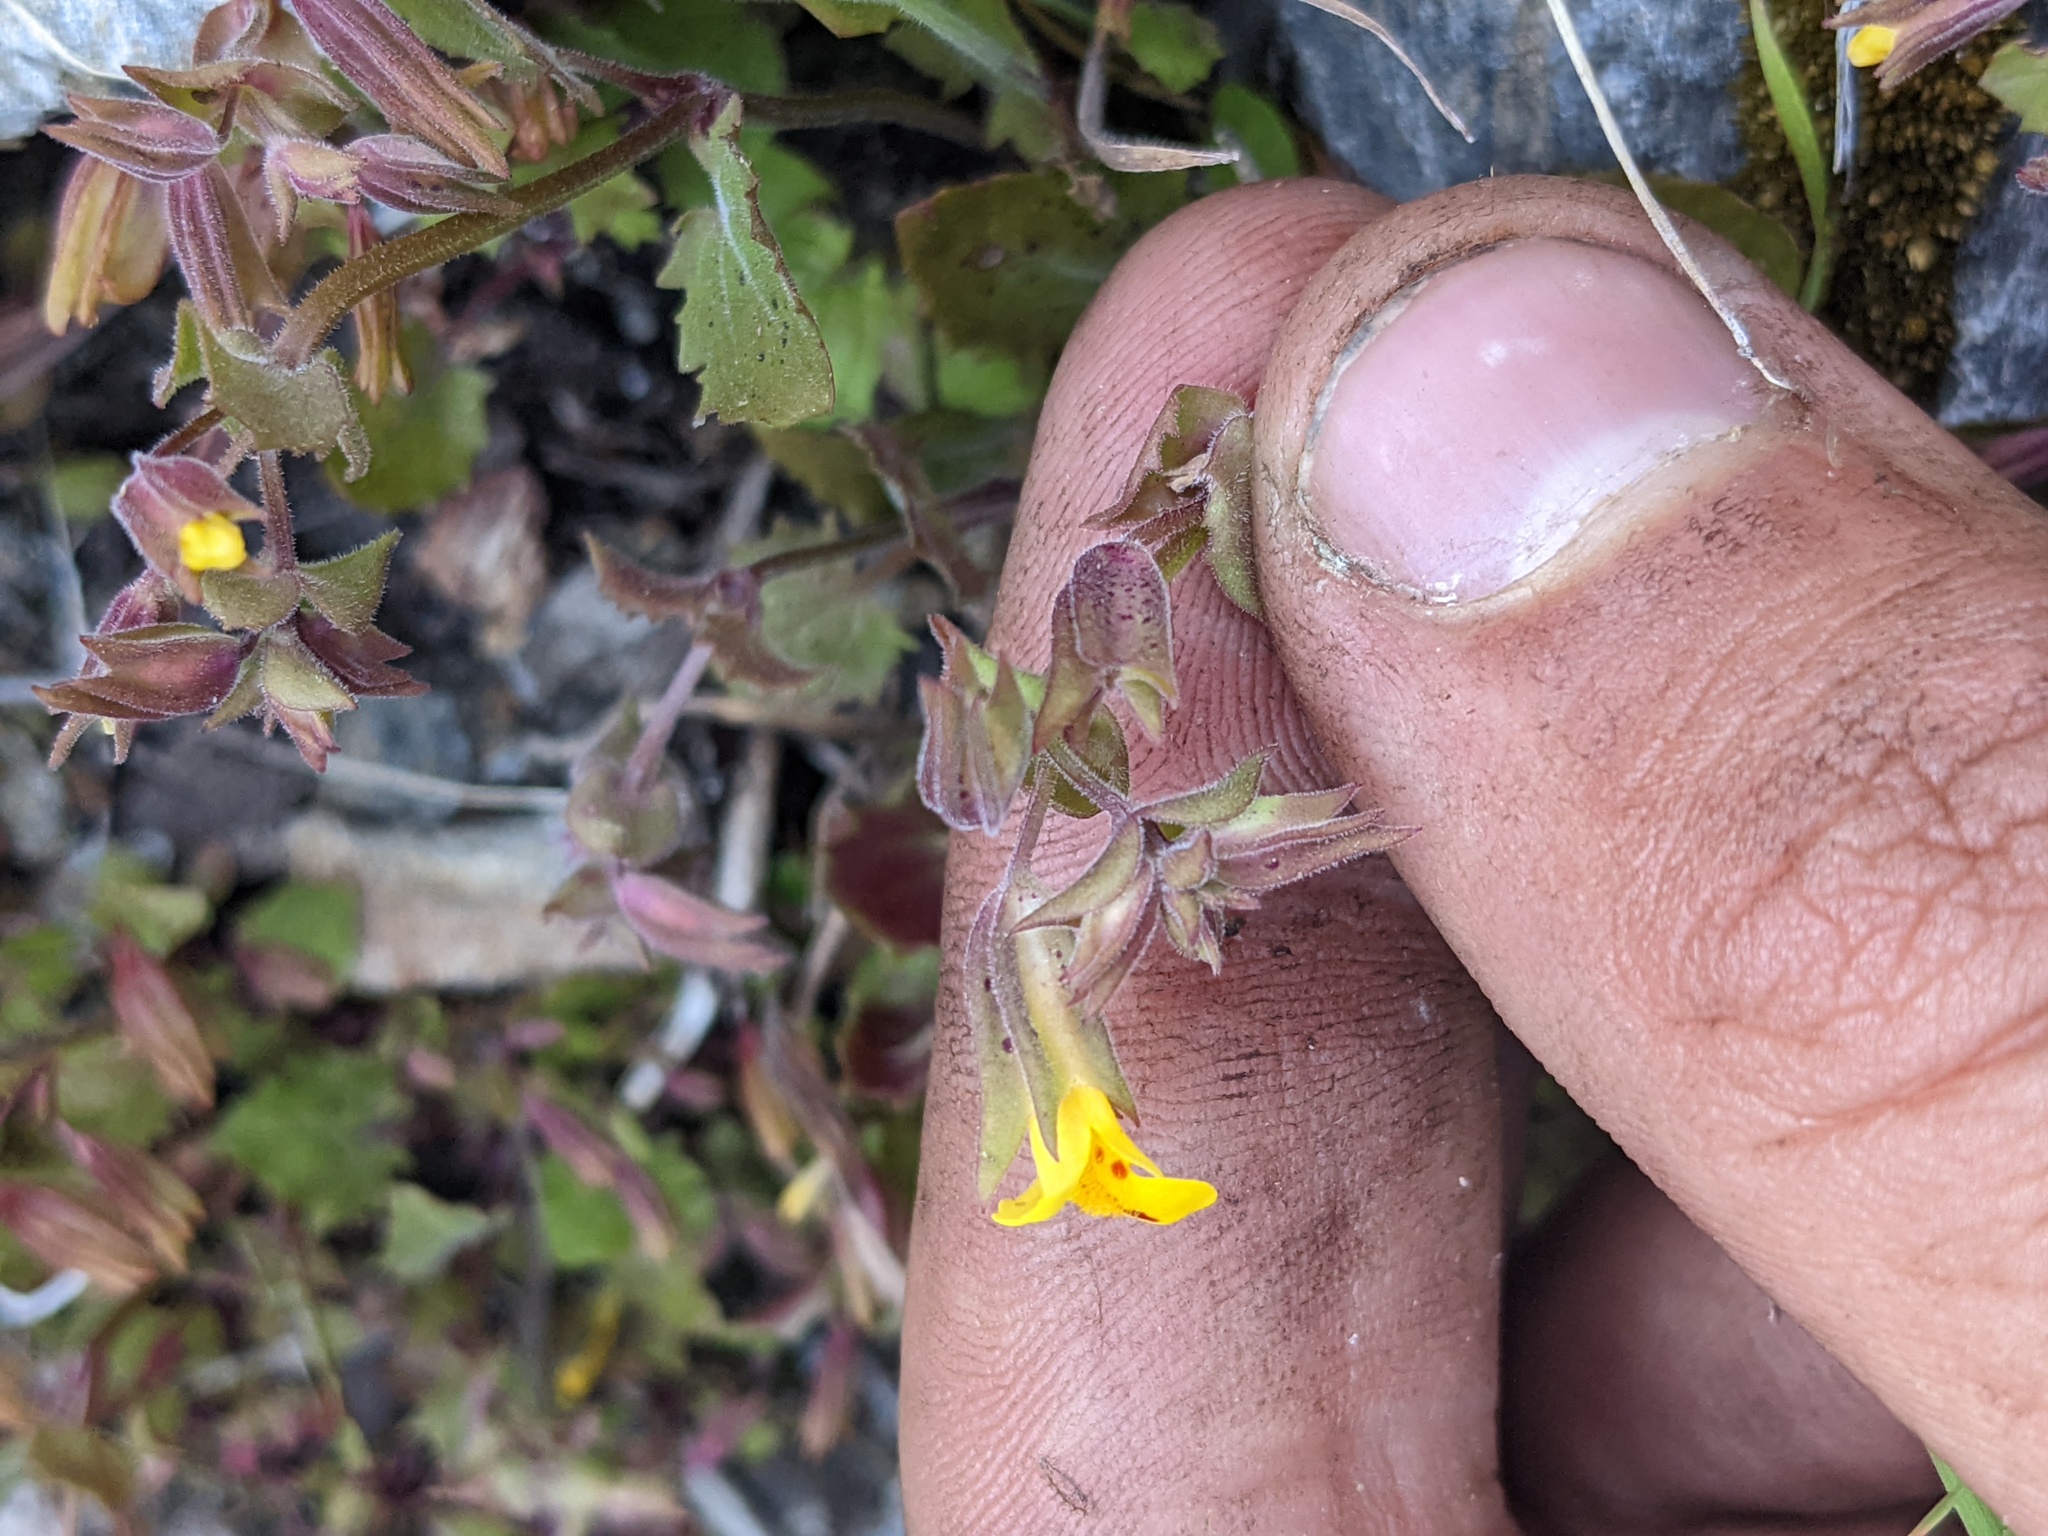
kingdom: Plantae
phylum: Tracheophyta
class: Magnoliopsida
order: Lamiales
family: Phrymaceae
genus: Erythranthe
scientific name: Erythranthe nasuta
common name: Sooke monkeyflower
